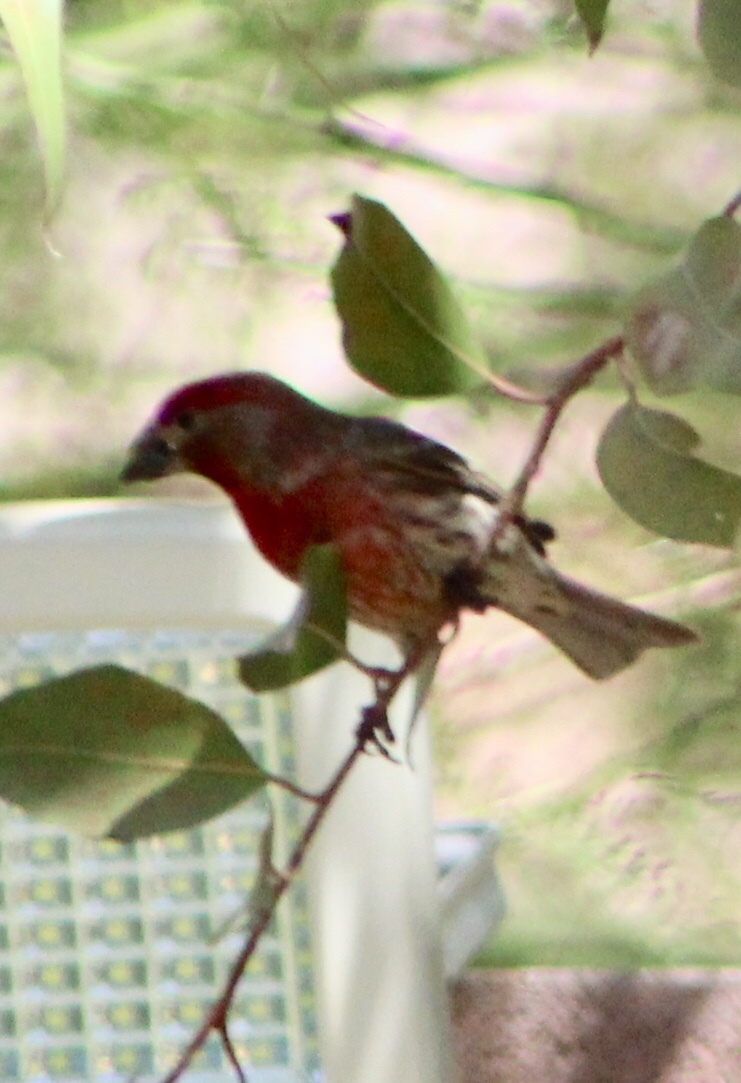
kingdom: Animalia
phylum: Chordata
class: Aves
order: Passeriformes
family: Fringillidae
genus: Haemorhous
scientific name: Haemorhous mexicanus
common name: House finch
